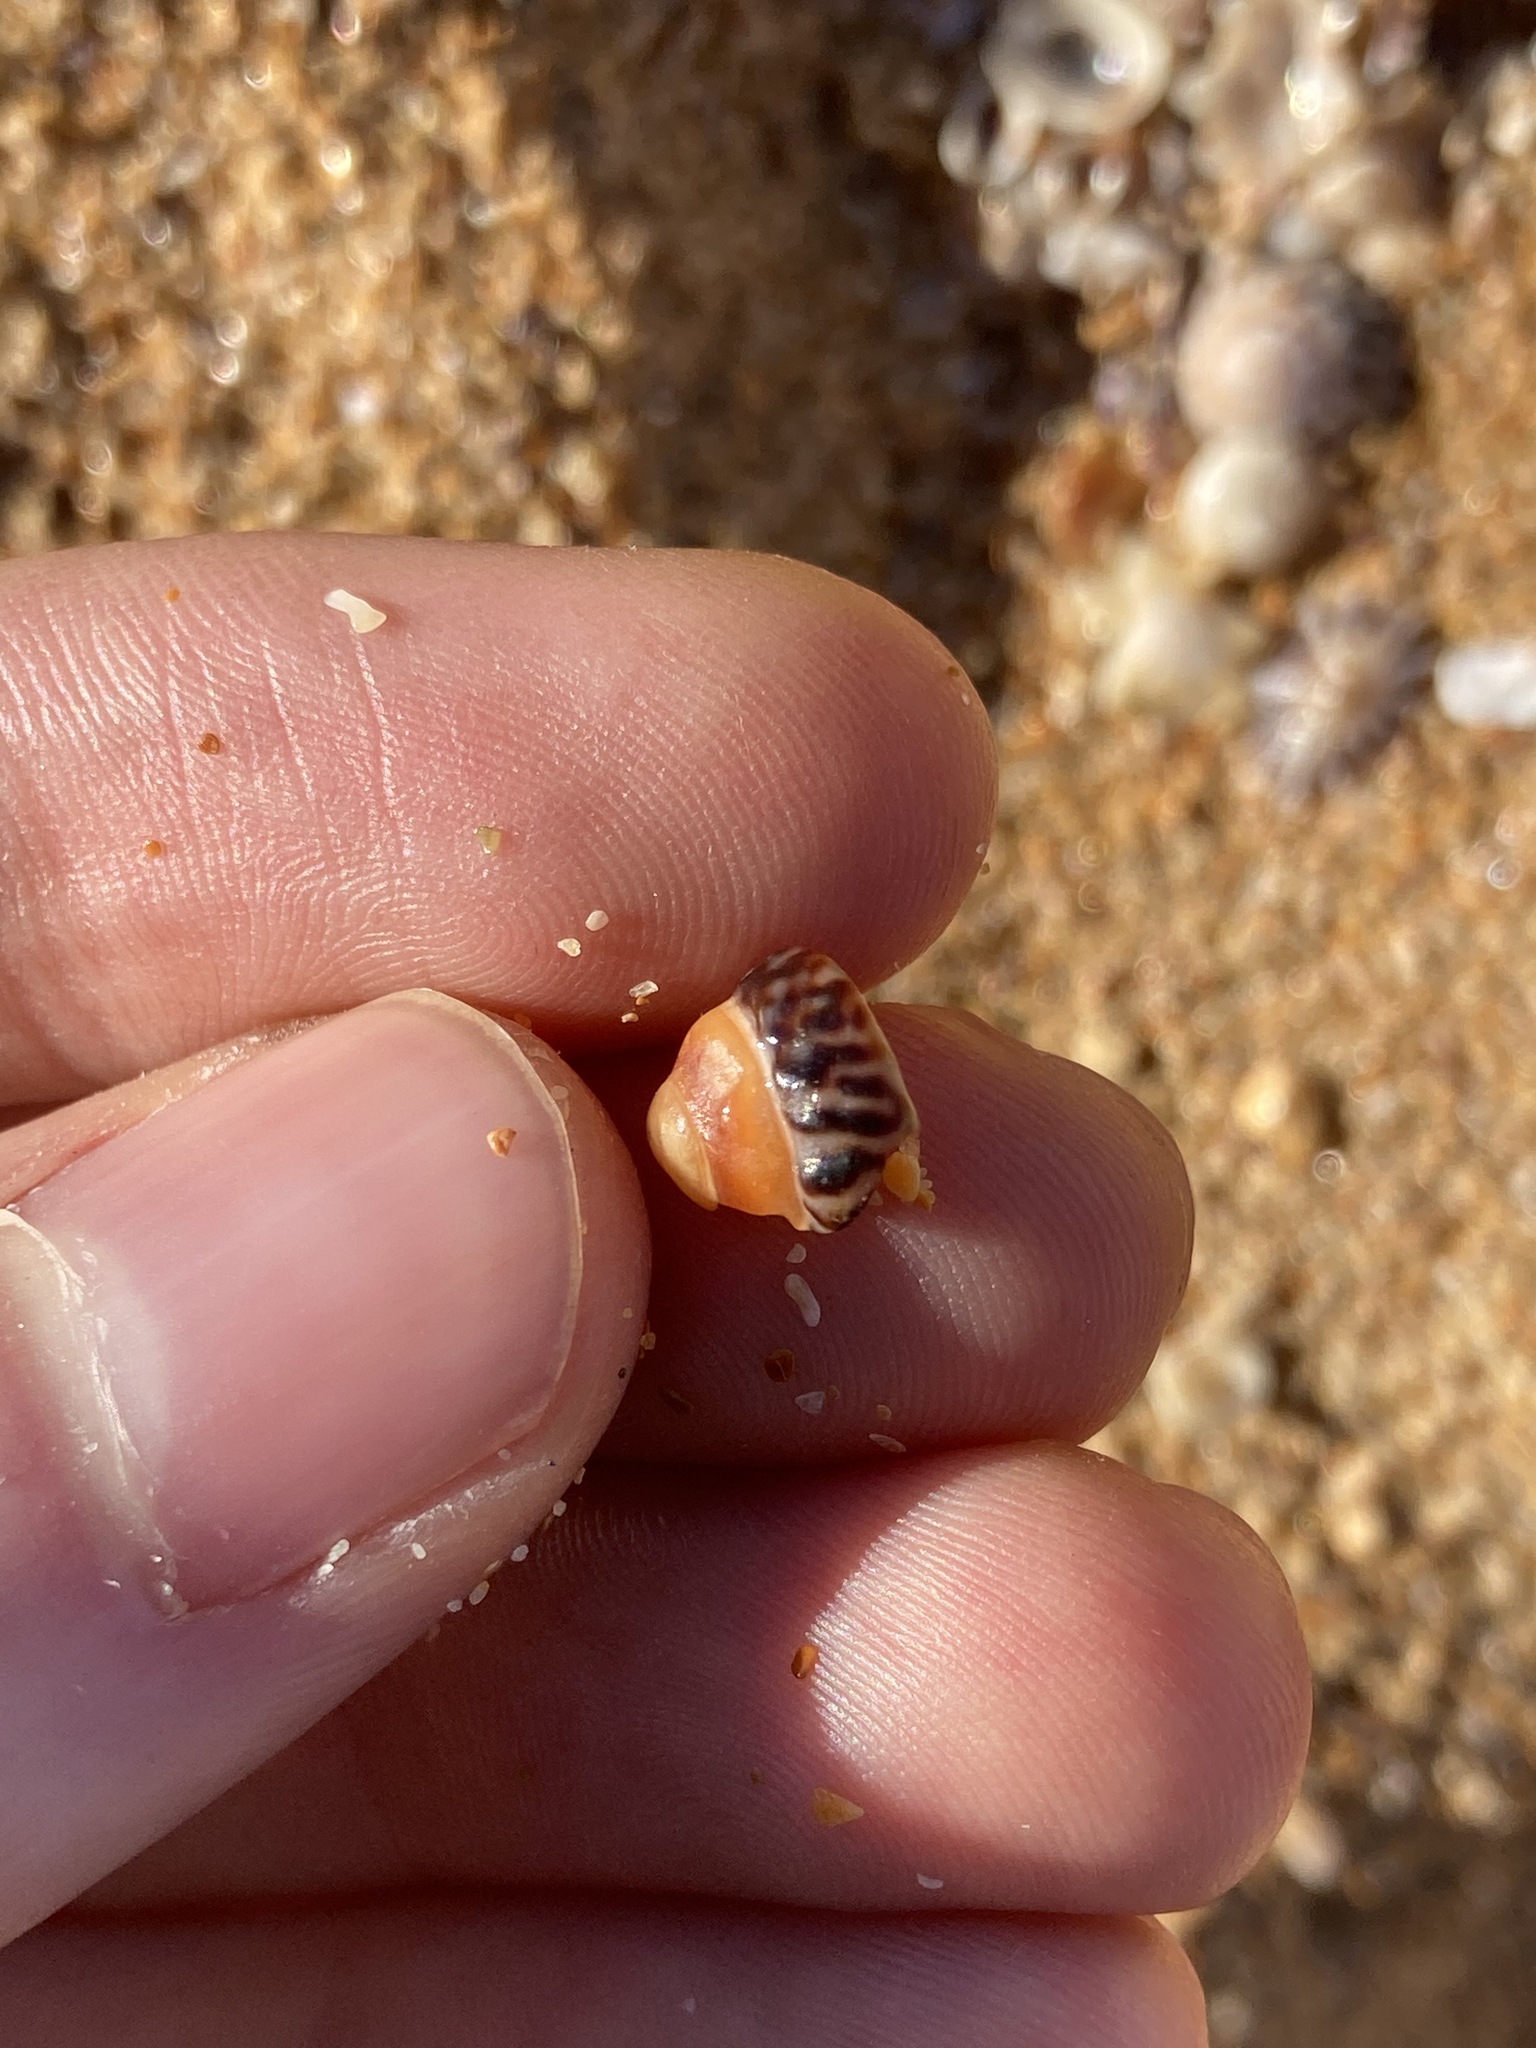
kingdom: Animalia
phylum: Mollusca
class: Gastropoda
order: Littorinimorpha
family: Littorinidae
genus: Bembicium
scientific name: Bembicium nanum
